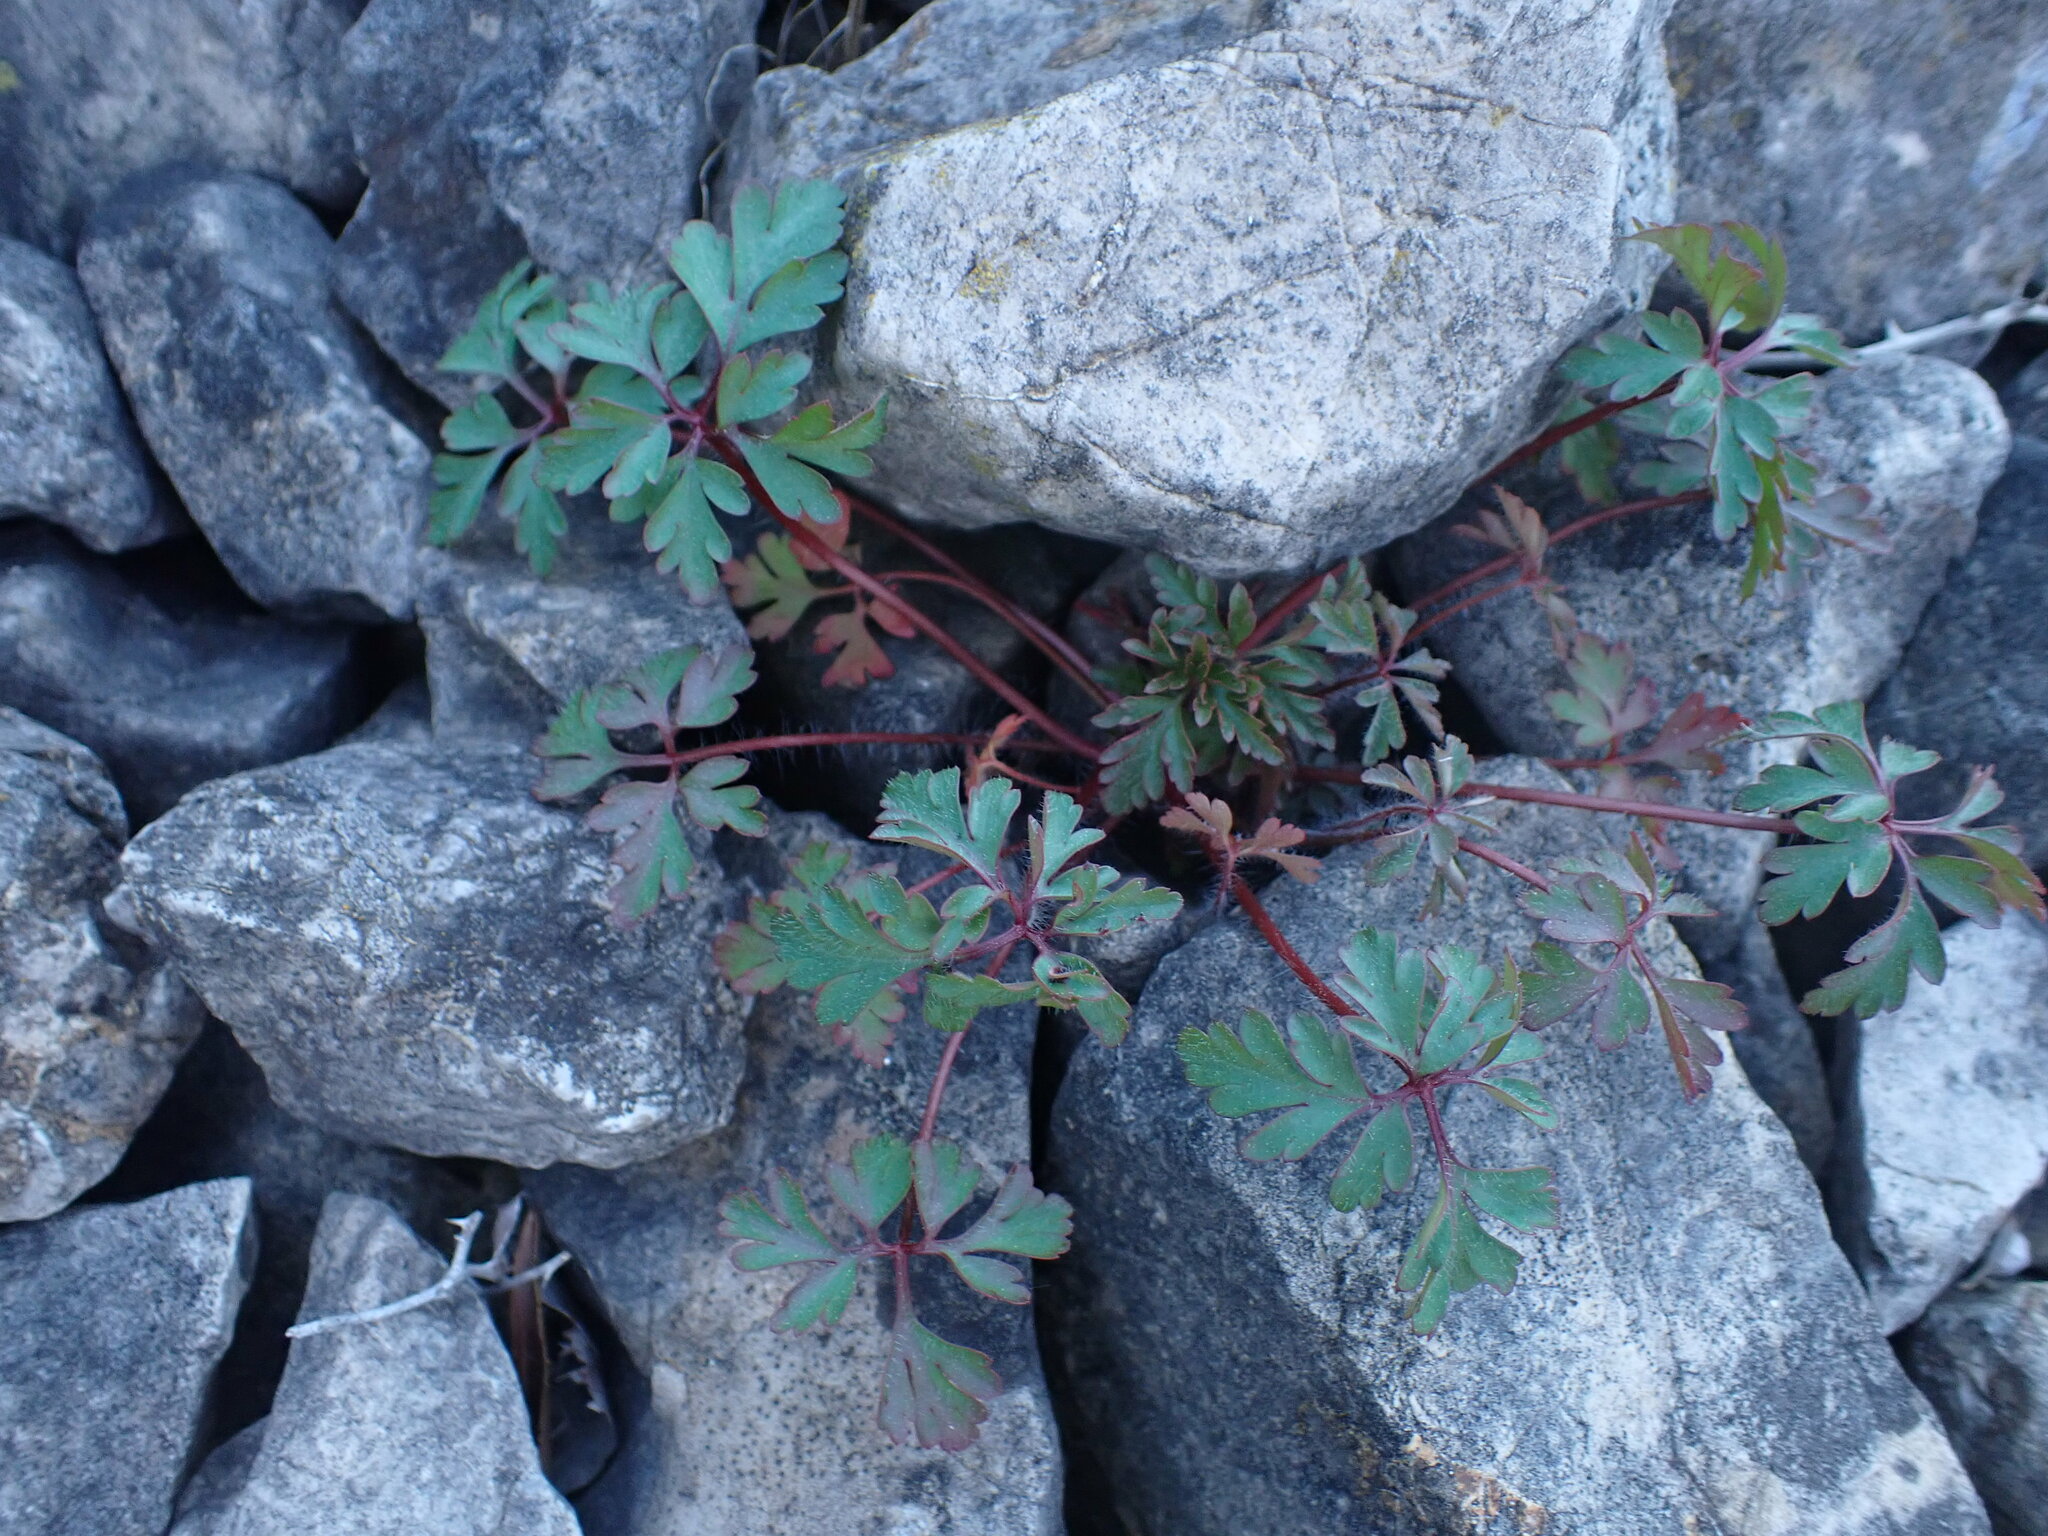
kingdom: Plantae
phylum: Tracheophyta
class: Magnoliopsida
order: Geraniales
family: Geraniaceae
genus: Geranium
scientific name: Geranium purpureum
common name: Little-robin
